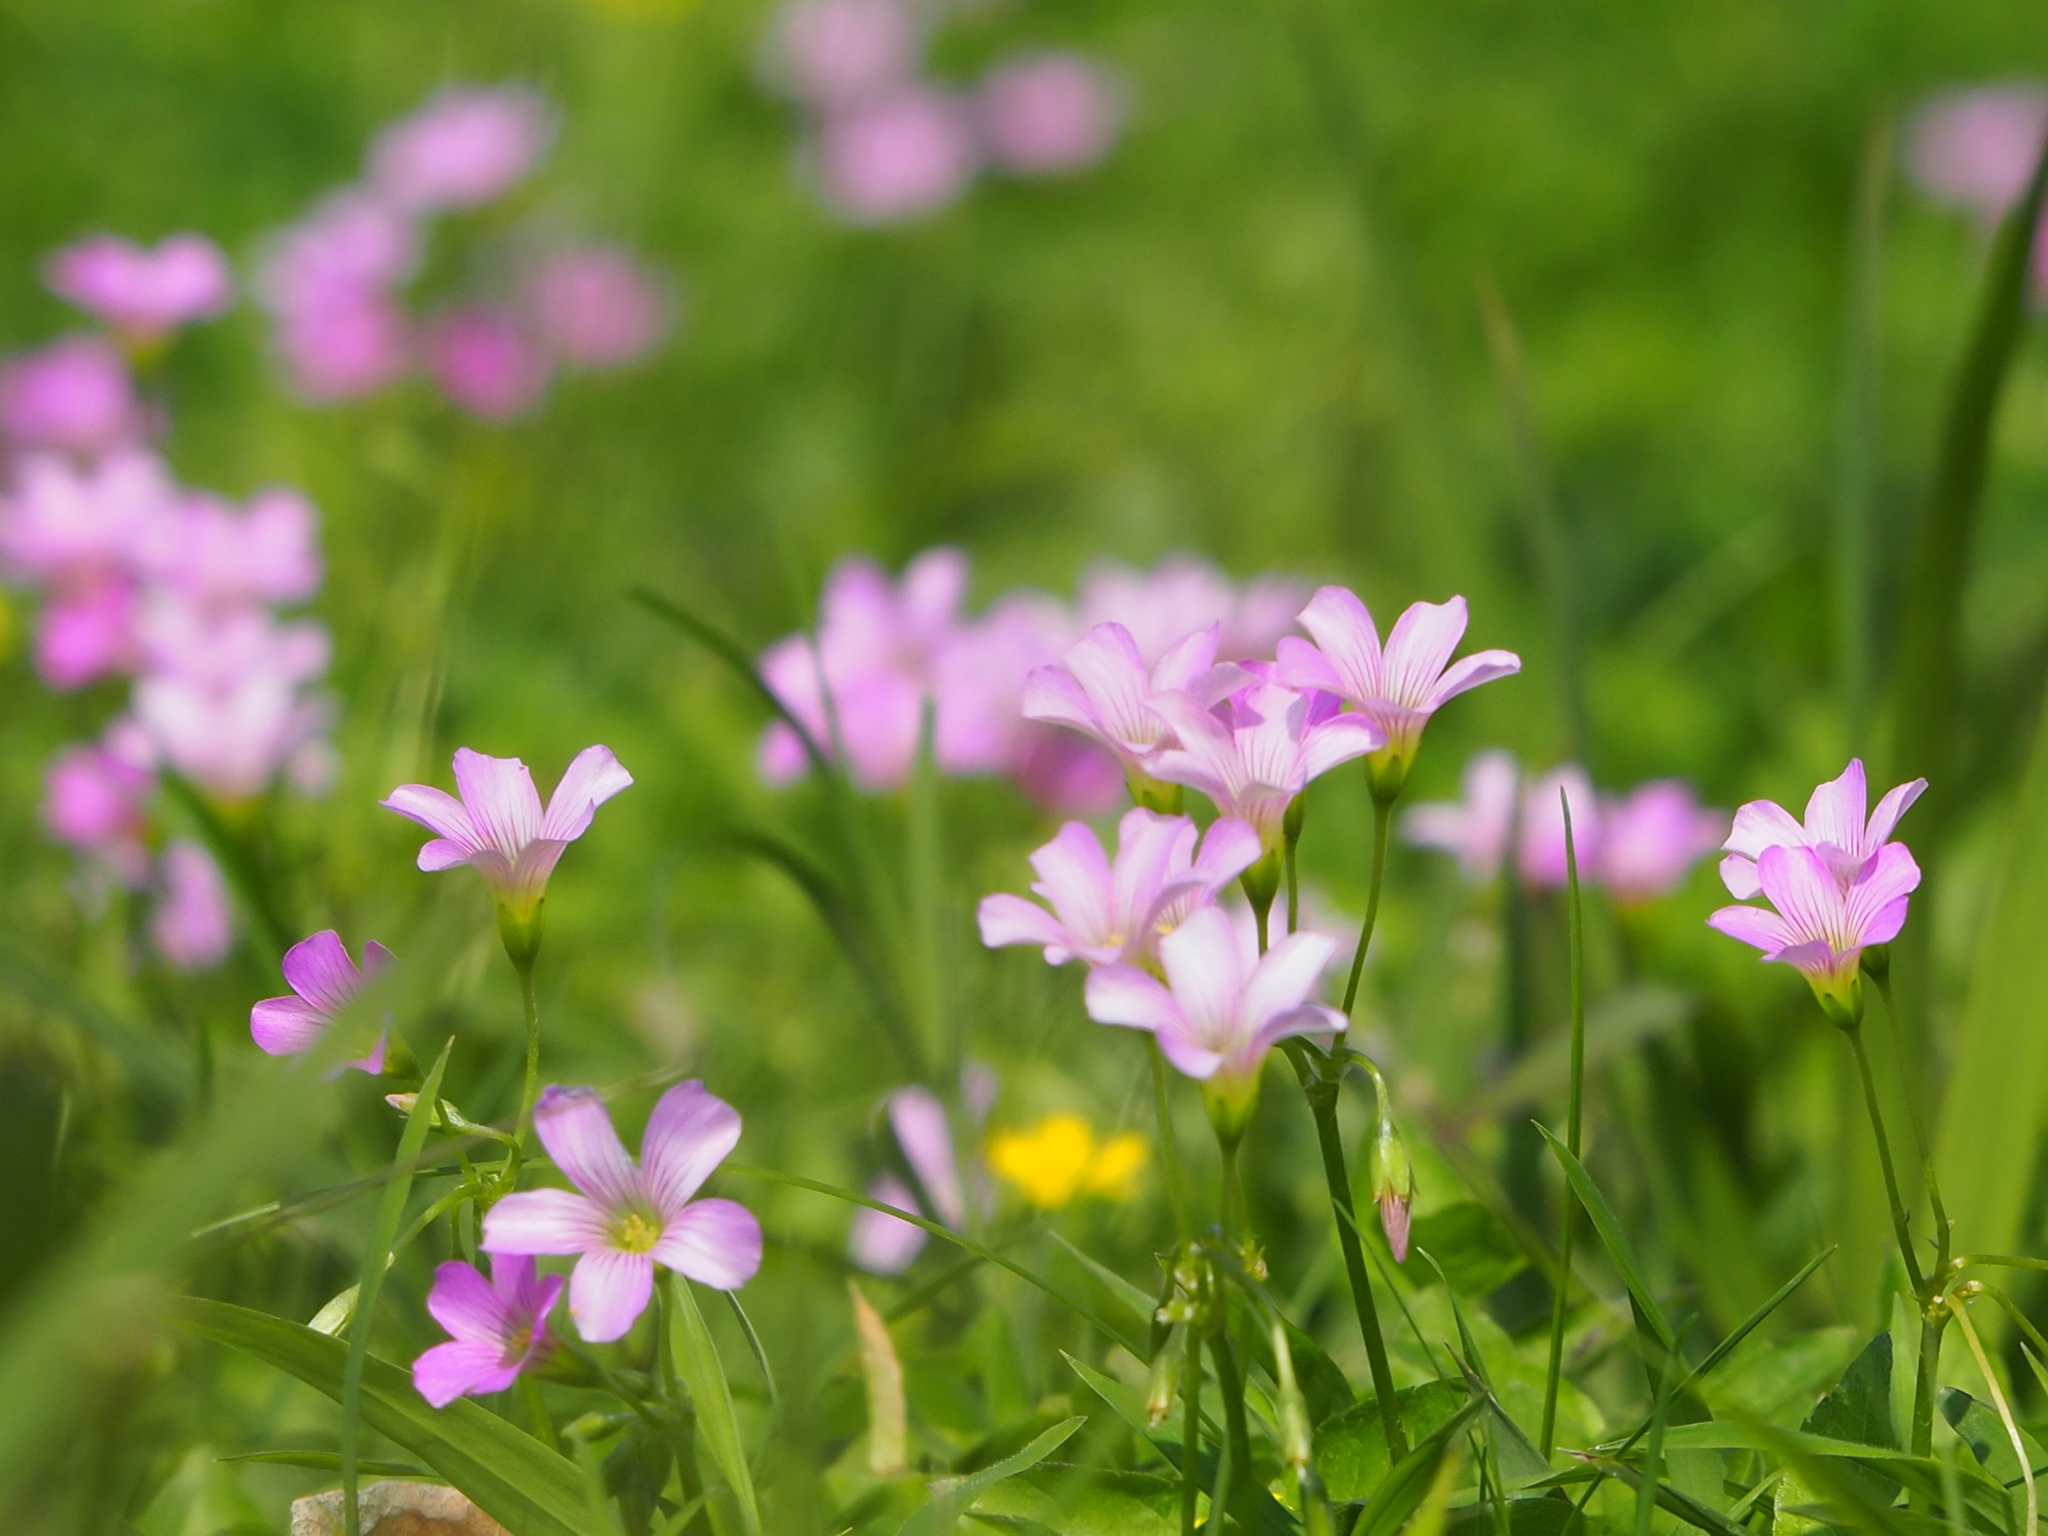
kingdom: Plantae
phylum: Tracheophyta
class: Magnoliopsida
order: Oxalidales
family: Oxalidaceae
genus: Oxalis
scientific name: Oxalis debilis
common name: Large-flowered pink-sorrel
